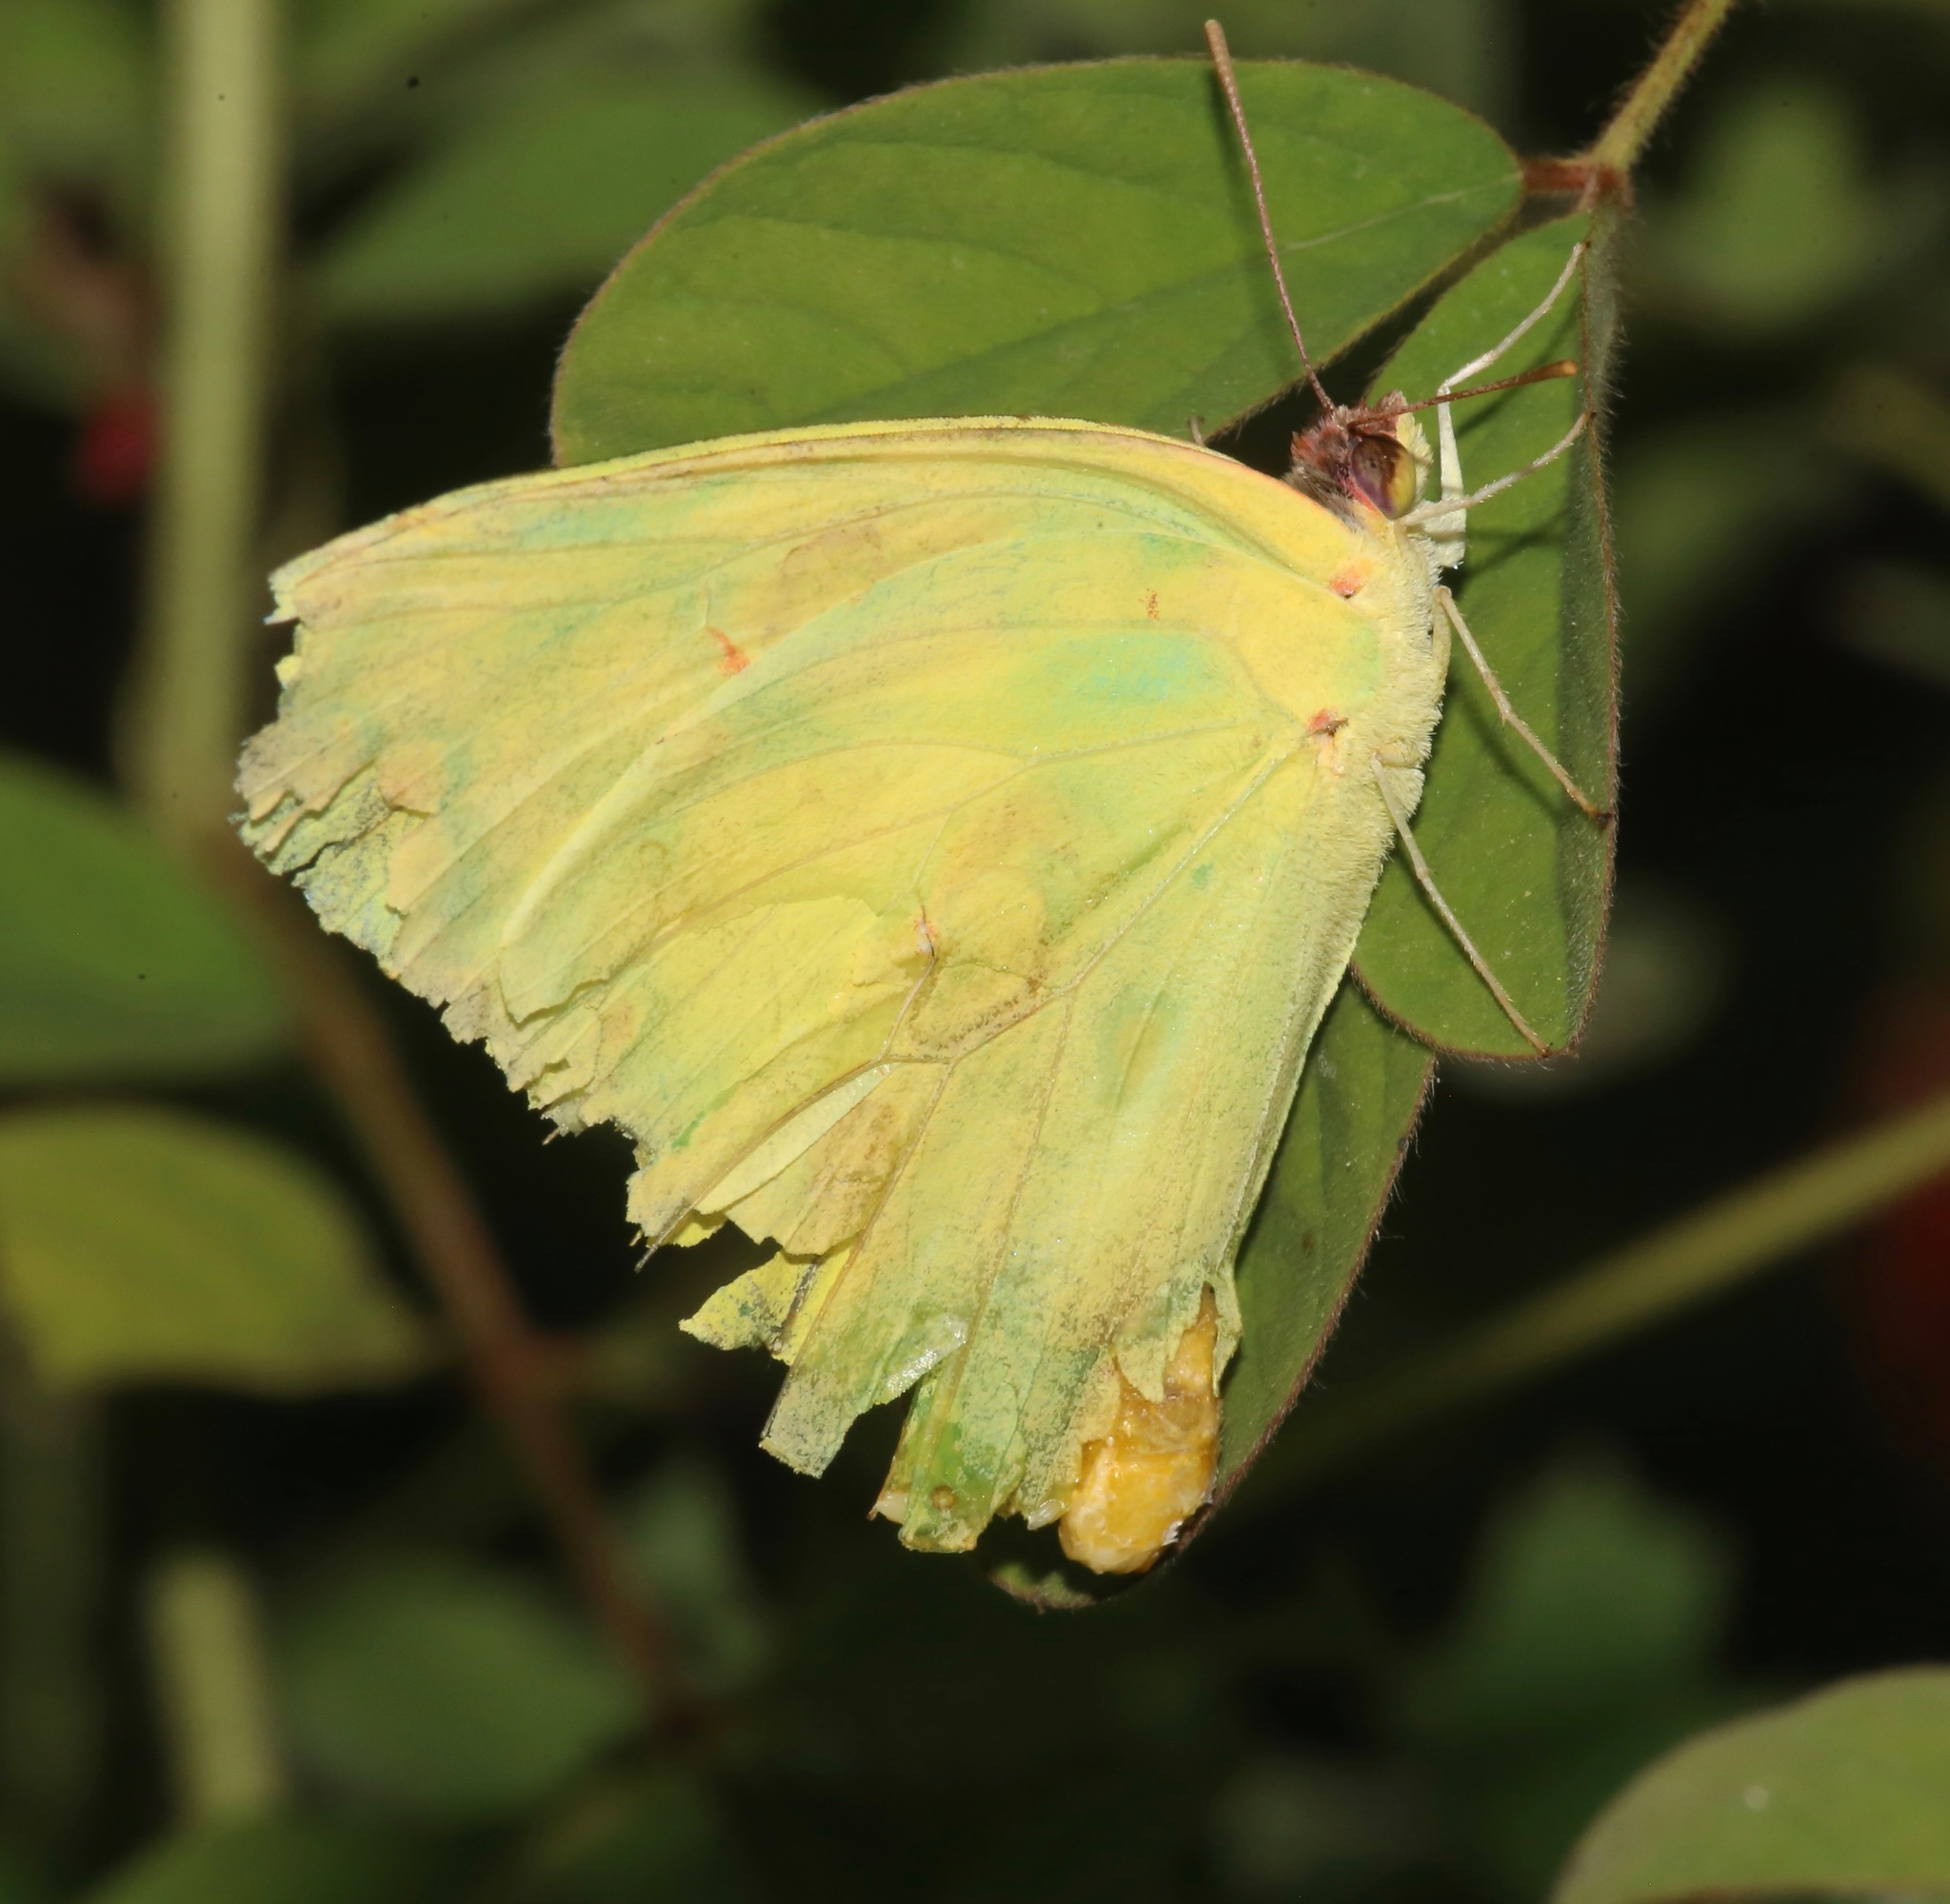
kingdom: Animalia
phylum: Arthropoda
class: Insecta
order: Lepidoptera
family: Pieridae
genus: Phoebis
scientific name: Phoebis sennae
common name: Cloudless sulphur
